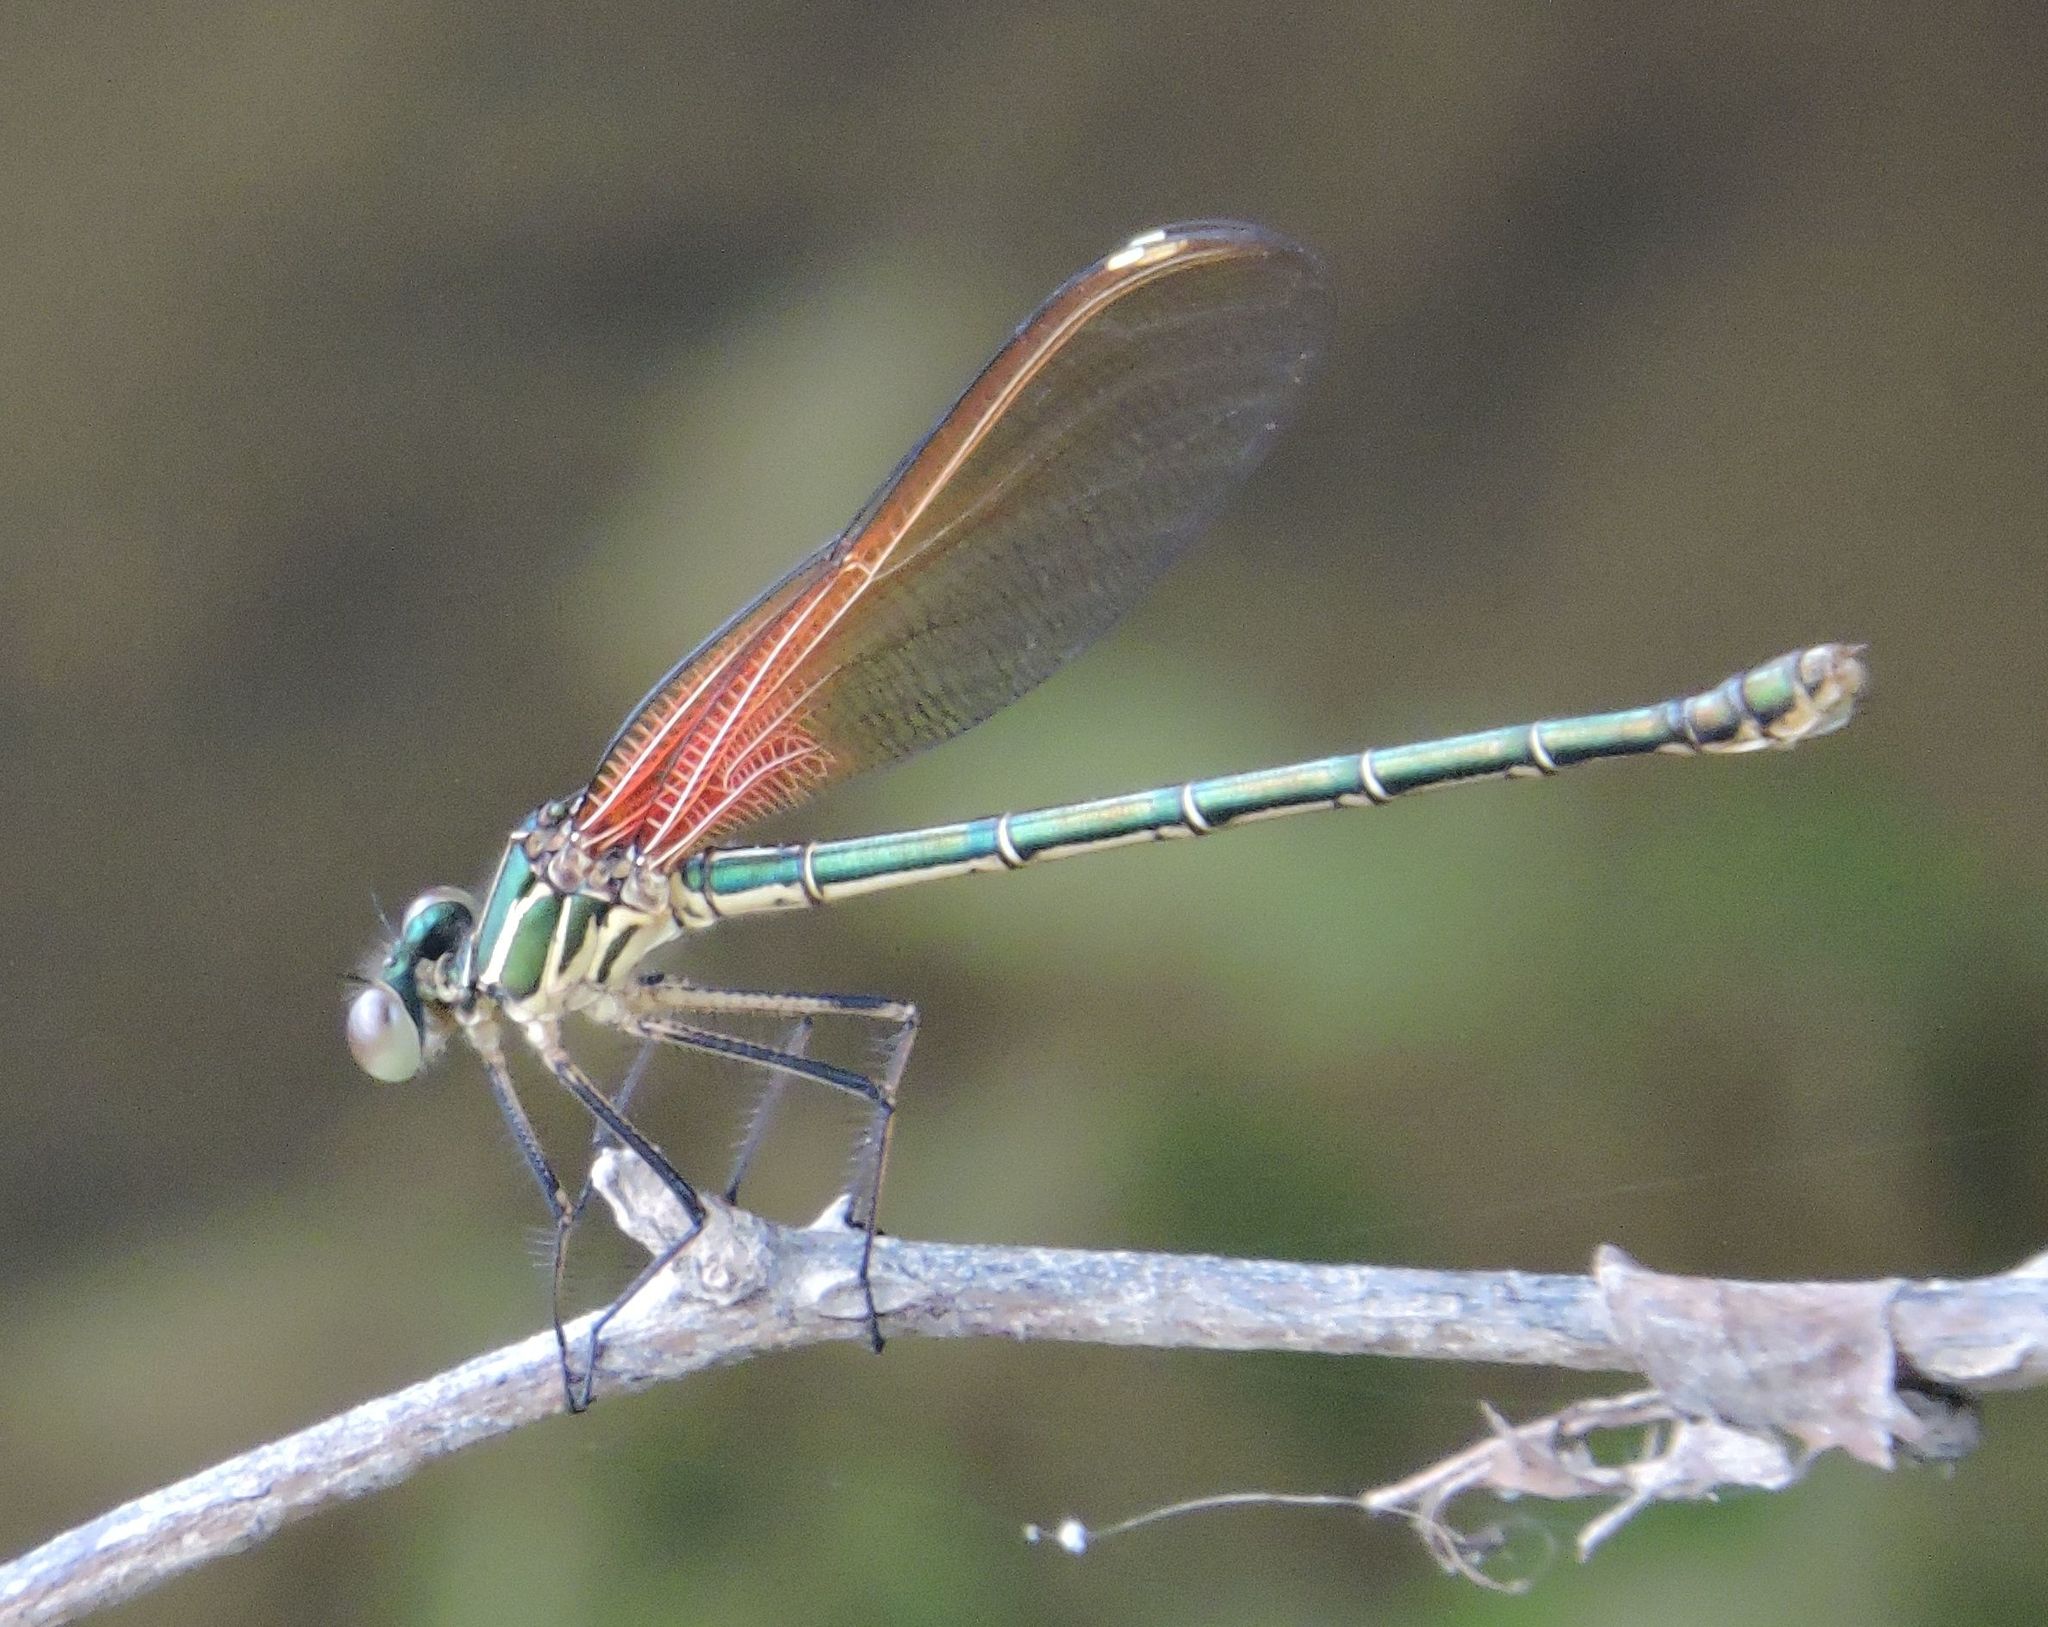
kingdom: Animalia
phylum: Arthropoda
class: Insecta
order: Odonata
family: Calopterygidae
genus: Hetaerina
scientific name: Hetaerina americana
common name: American rubyspot
